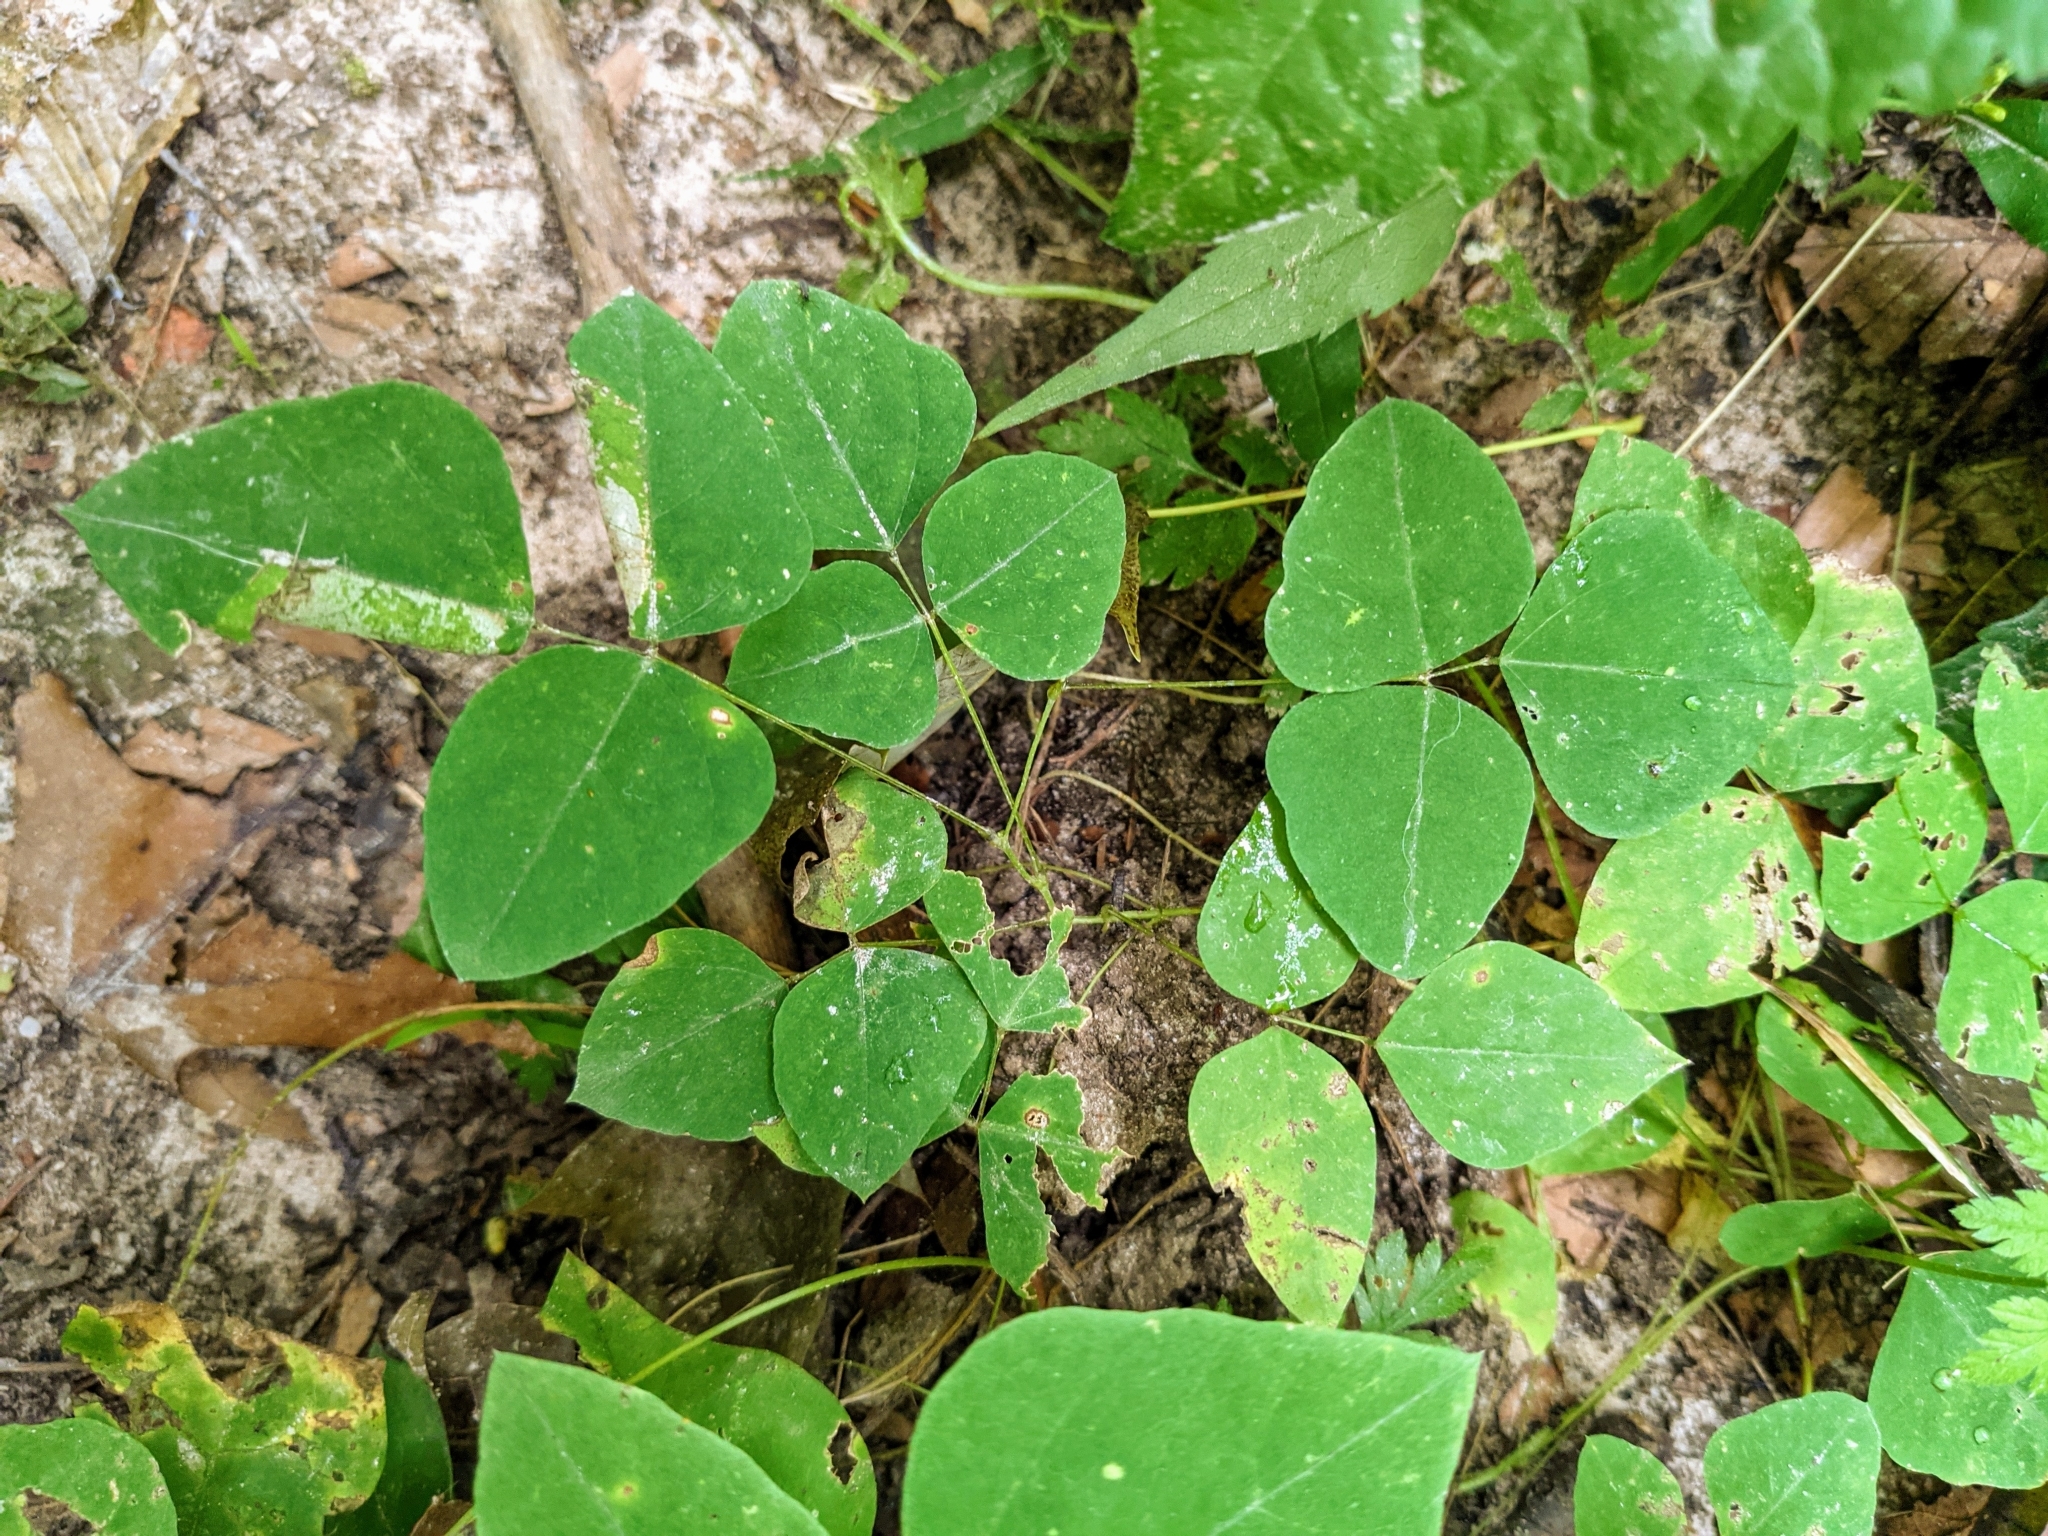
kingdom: Plantae
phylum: Tracheophyta
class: Magnoliopsida
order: Fabales
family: Fabaceae
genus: Amphicarpaea
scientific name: Amphicarpaea bracteata
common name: American hog peanut
